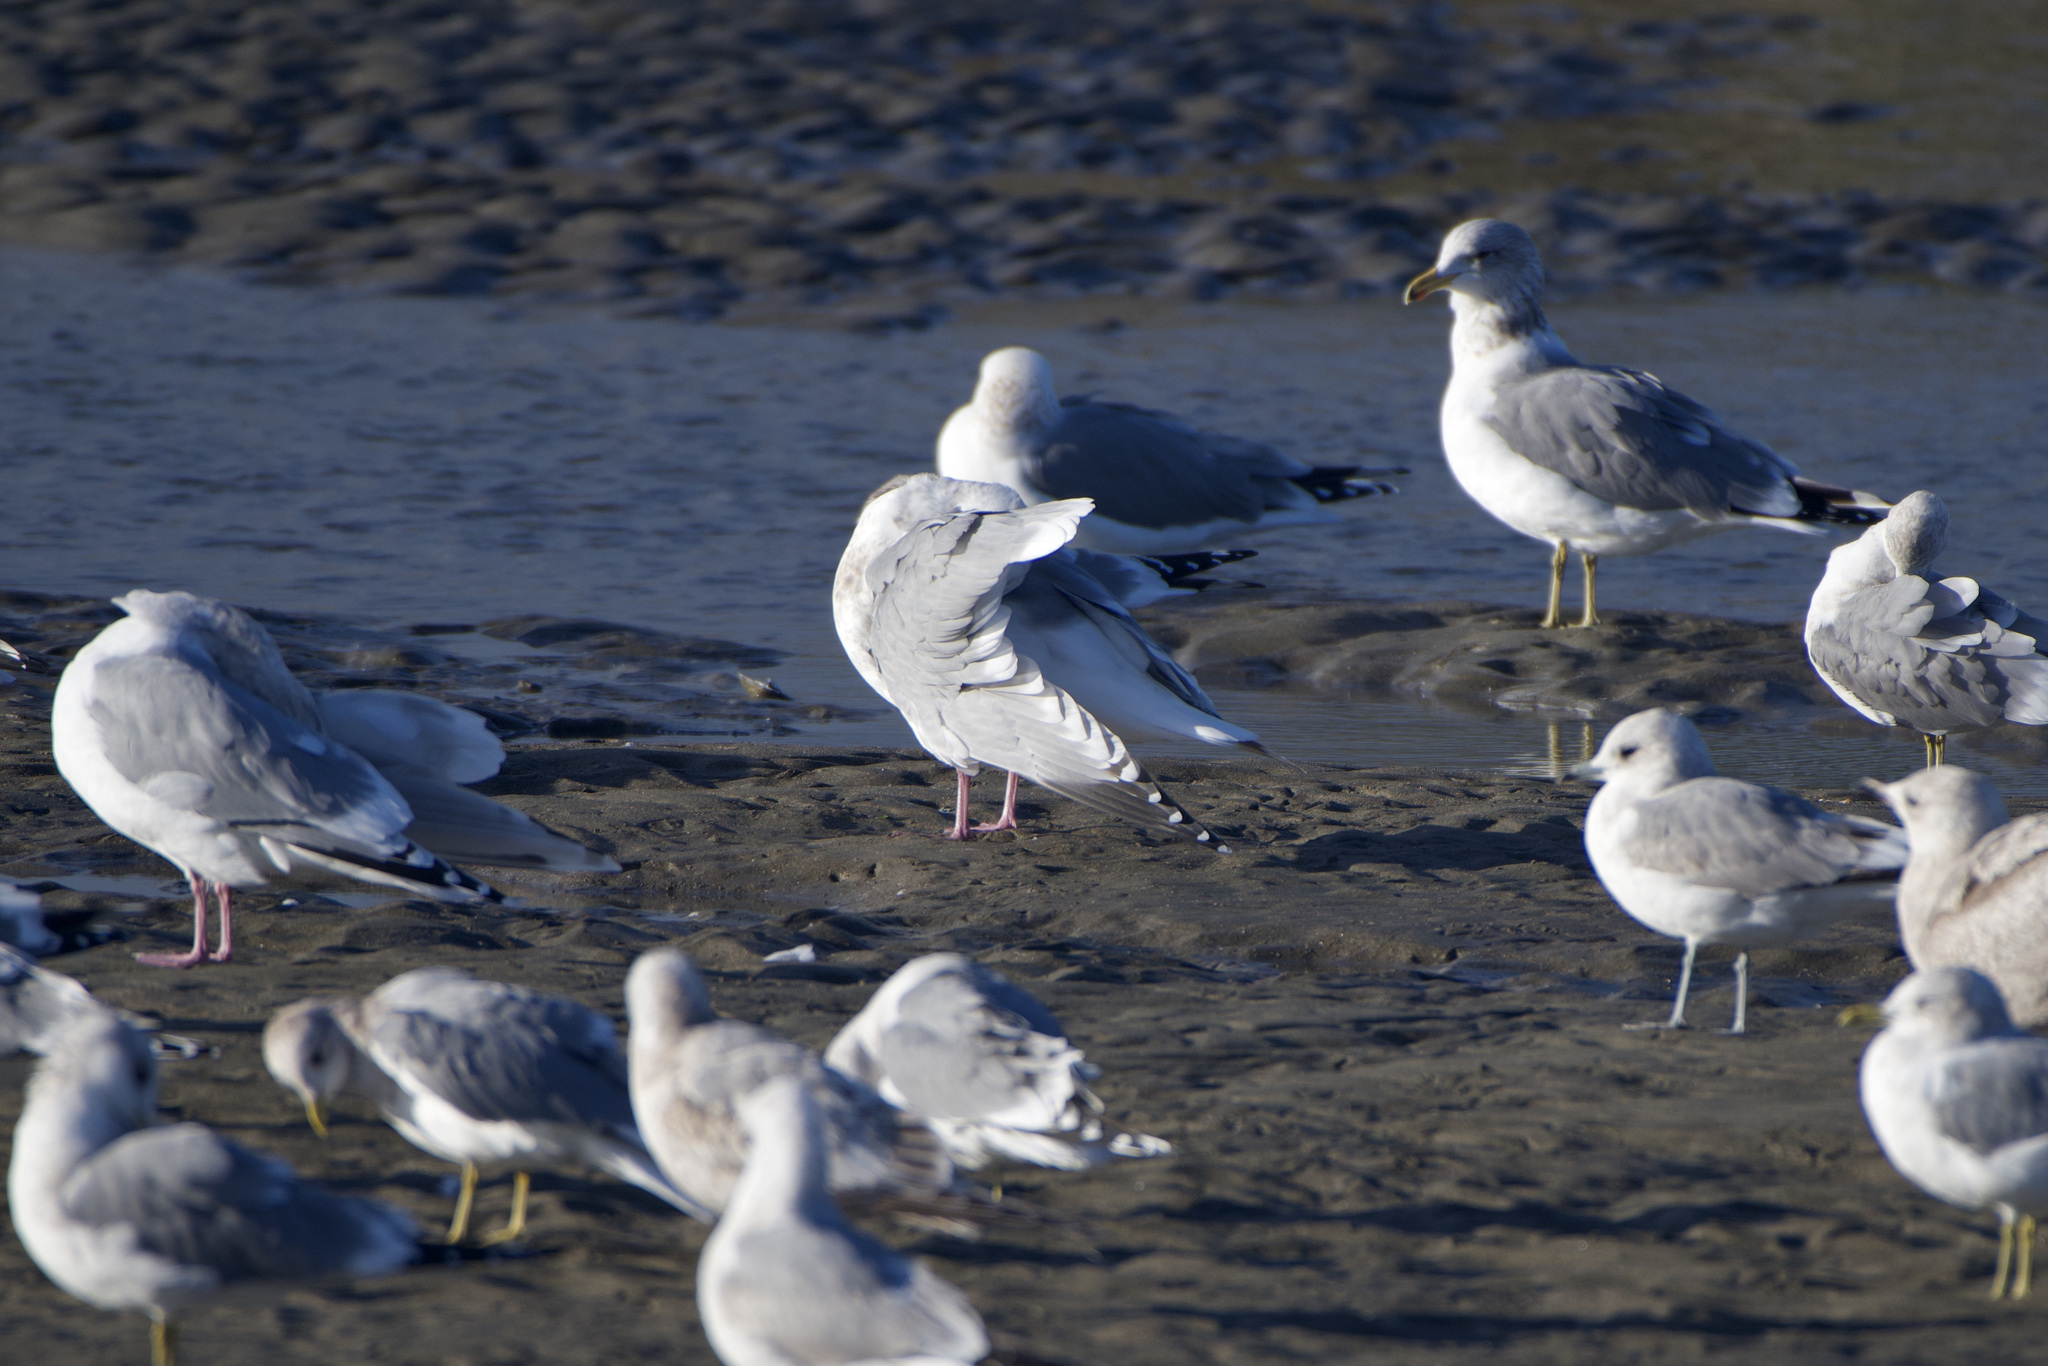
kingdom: Animalia
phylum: Chordata
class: Aves
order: Charadriiformes
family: Laridae
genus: Larus
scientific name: Larus glaucoides
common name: Iceland gull
